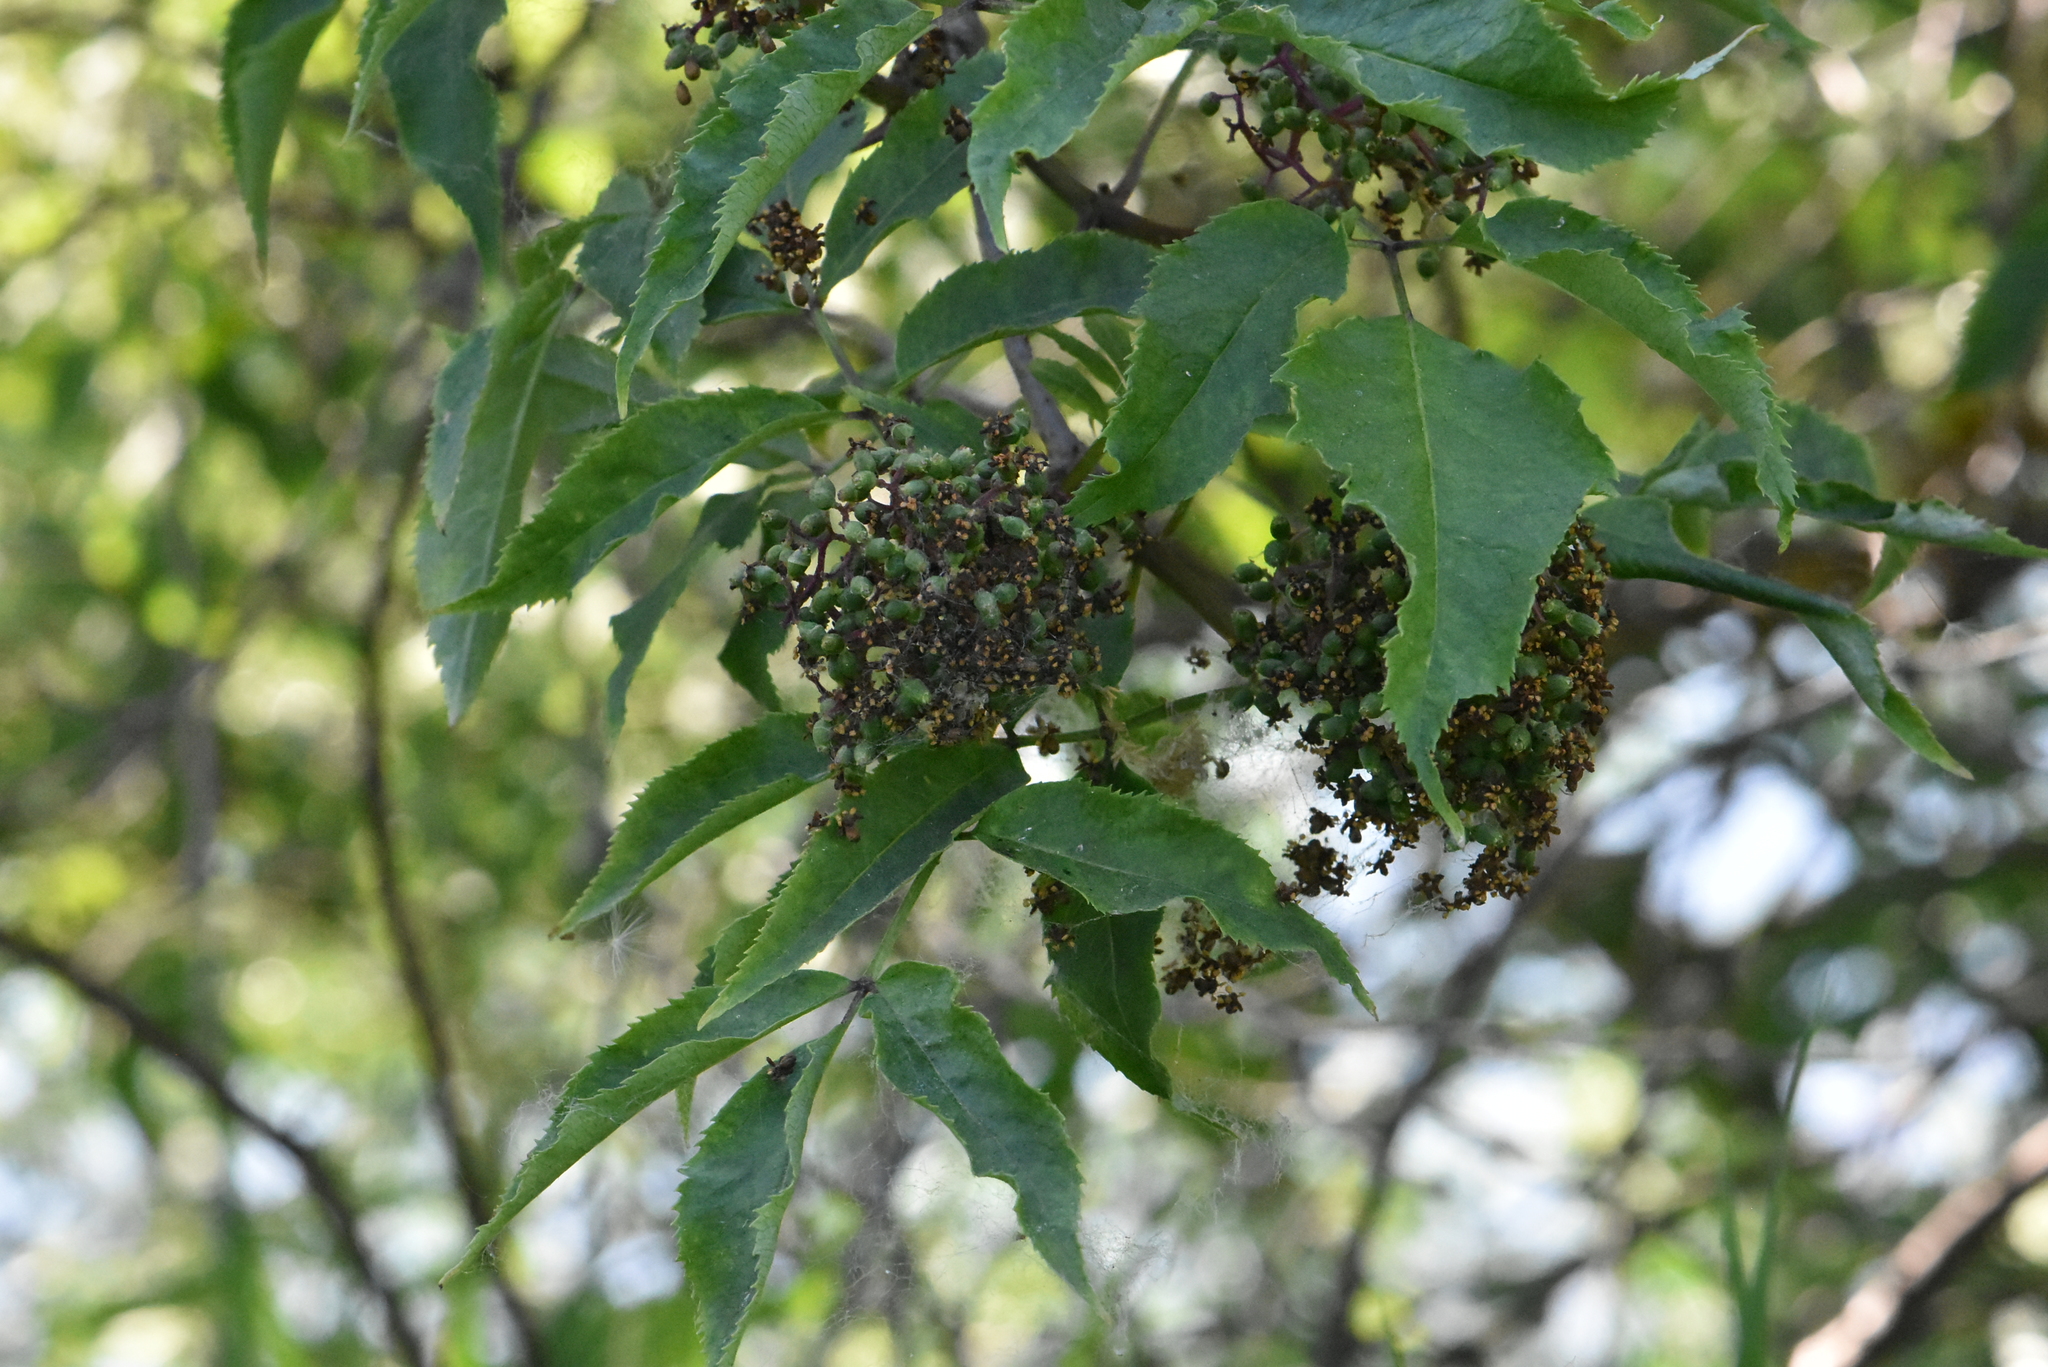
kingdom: Plantae
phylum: Tracheophyta
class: Magnoliopsida
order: Dipsacales
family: Viburnaceae
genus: Sambucus
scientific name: Sambucus racemosa
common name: Red-berried elder
